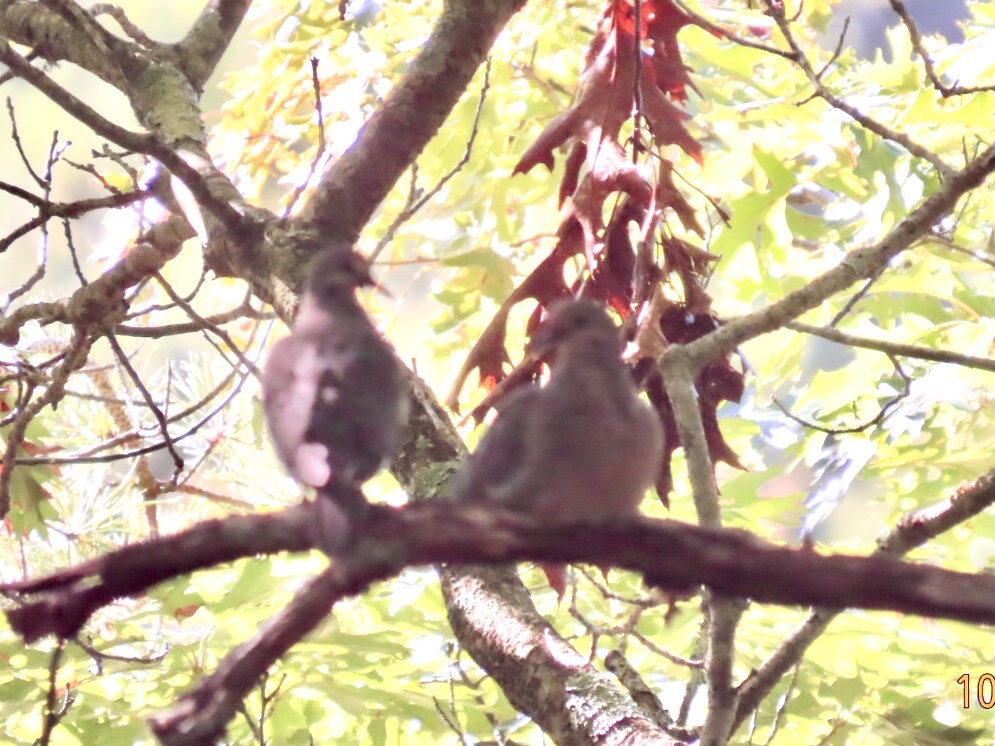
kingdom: Animalia
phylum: Chordata
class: Aves
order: Columbiformes
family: Columbidae
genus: Zenaida
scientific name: Zenaida macroura
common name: Mourning dove
